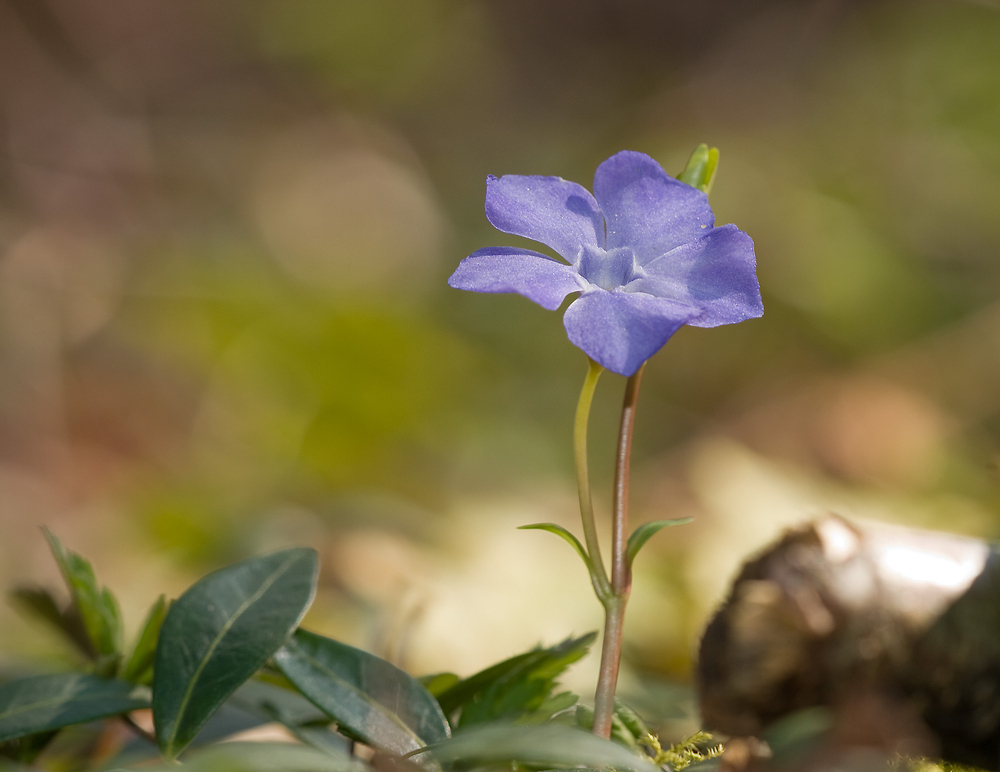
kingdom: Plantae
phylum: Tracheophyta
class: Magnoliopsida
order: Gentianales
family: Apocynaceae
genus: Vinca
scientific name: Vinca minor
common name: Lesser periwinkle
